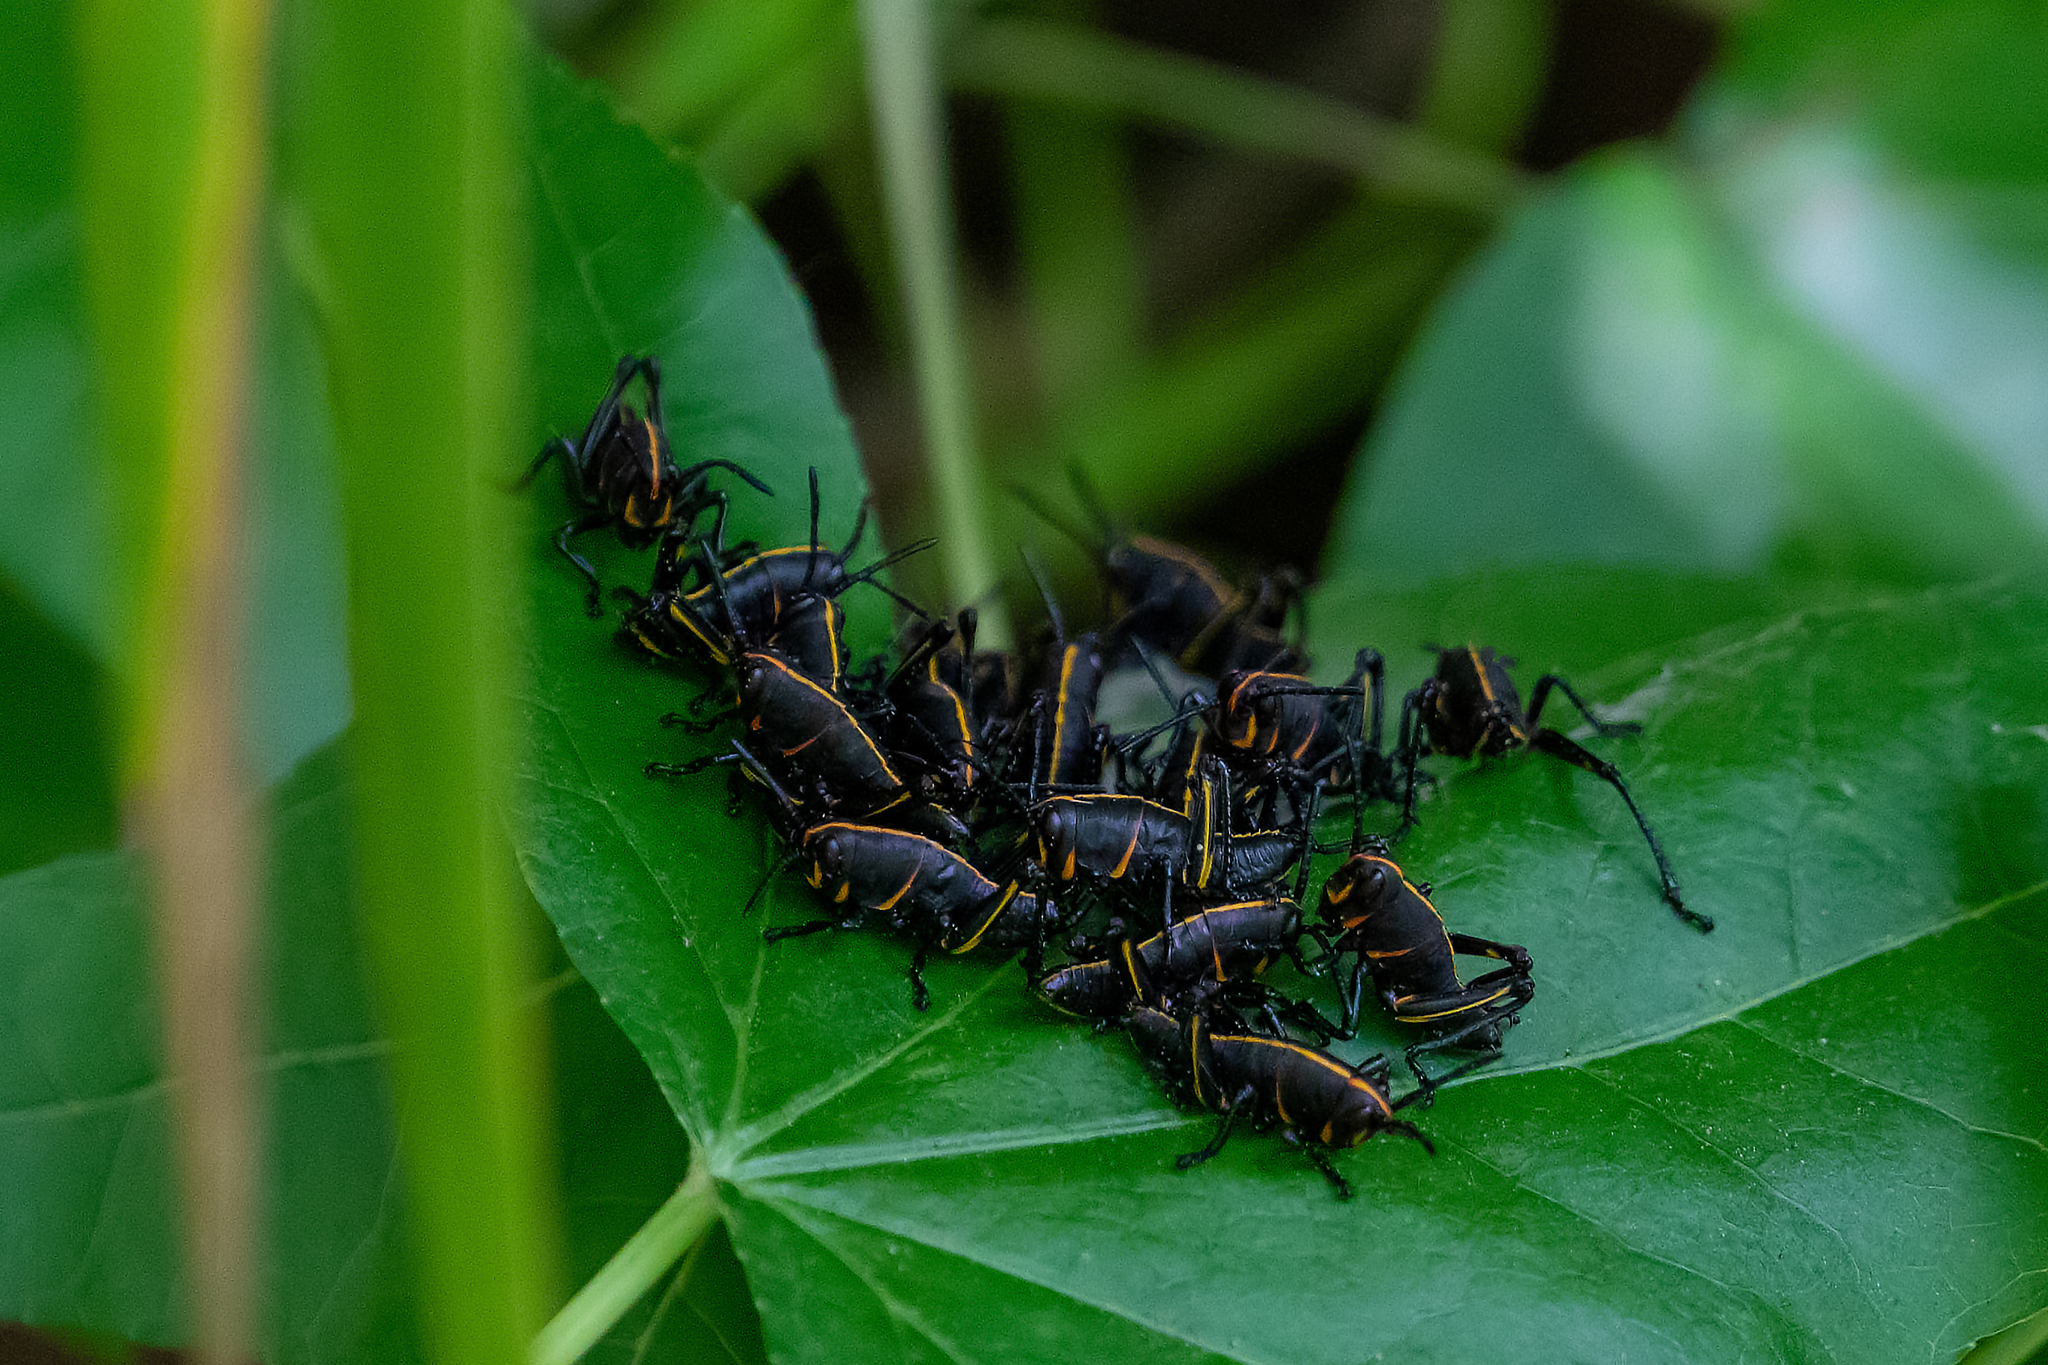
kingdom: Animalia
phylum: Arthropoda
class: Insecta
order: Orthoptera
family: Romaleidae
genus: Romalea
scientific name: Romalea microptera
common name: Eastern lubber grasshopper
